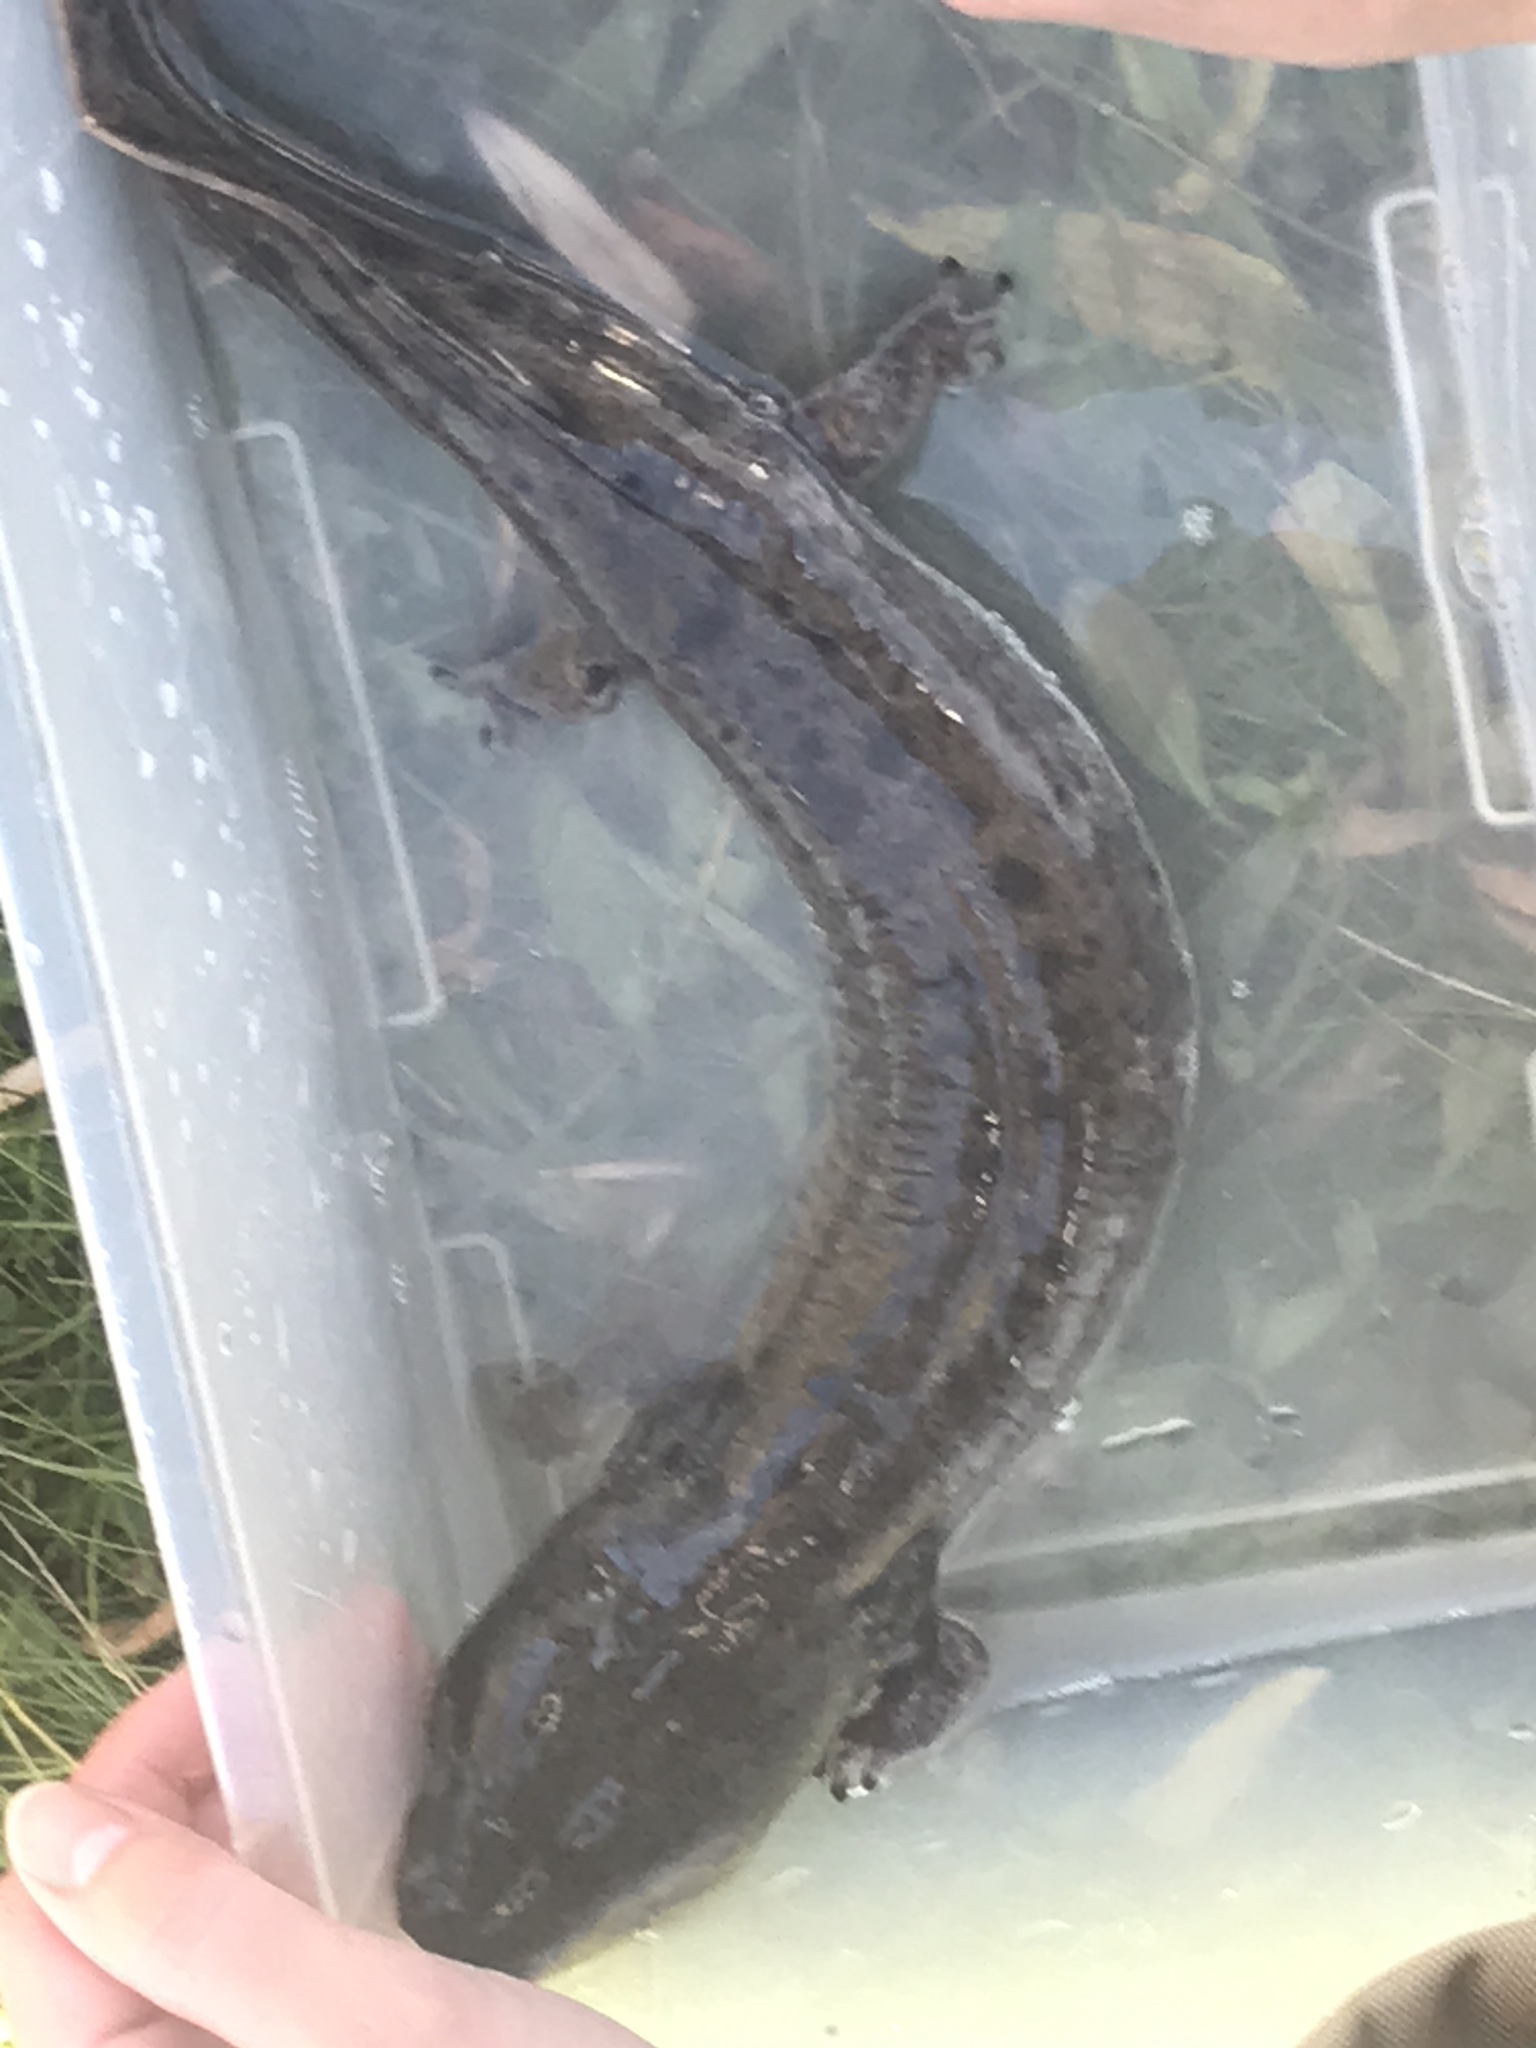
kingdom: Animalia
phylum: Chordata
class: Amphibia
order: Caudata
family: Proteidae
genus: Necturus
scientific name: Necturus maculosus
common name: Mudpuppy
